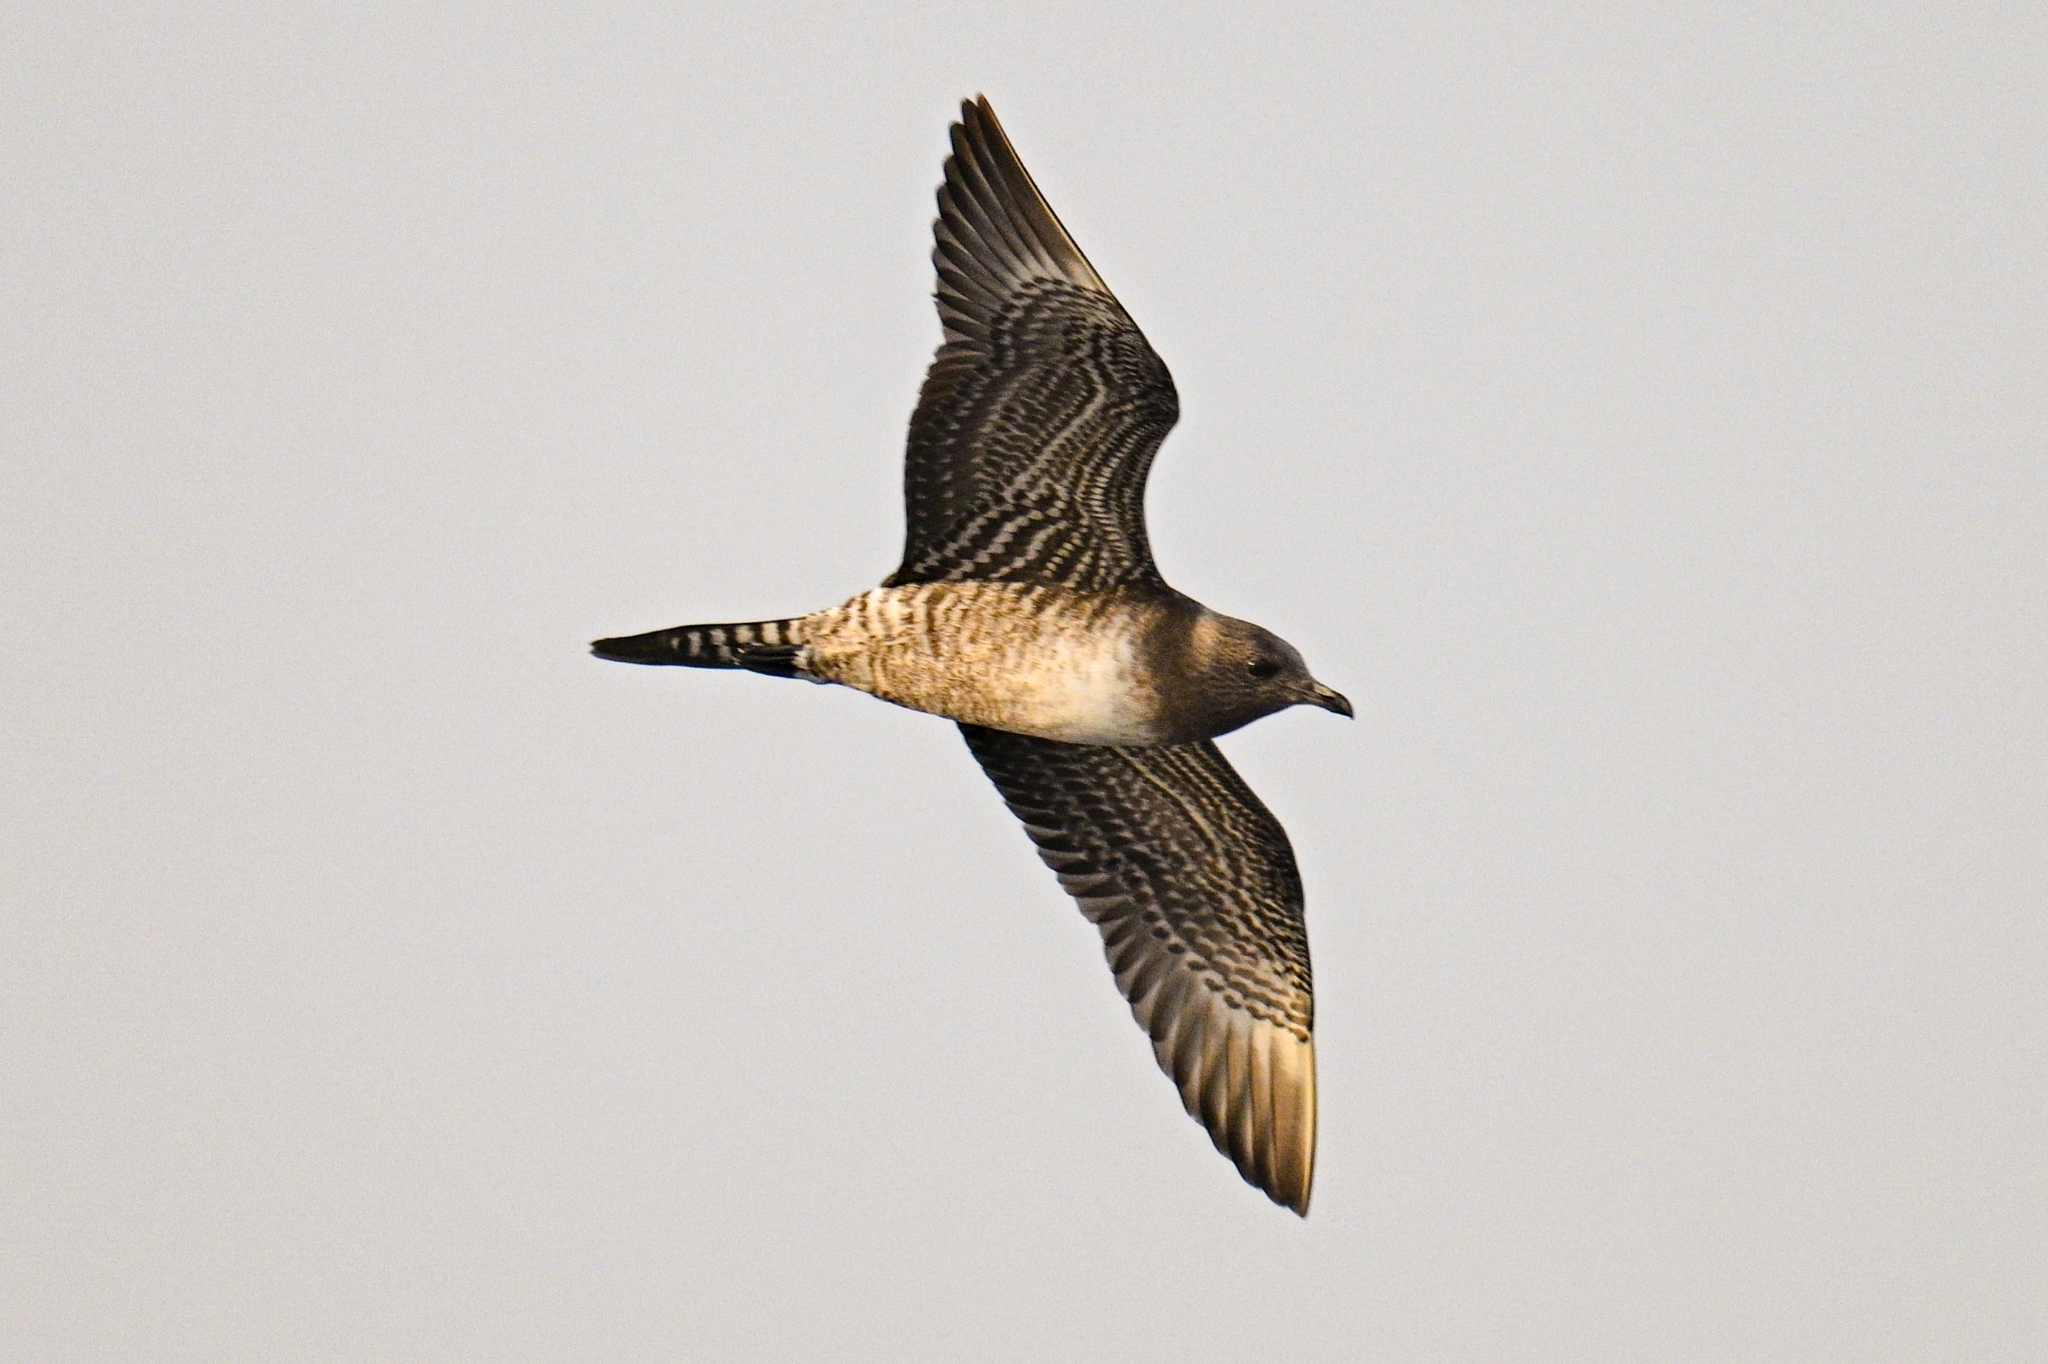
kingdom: Animalia
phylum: Chordata
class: Aves
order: Charadriiformes
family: Stercorariidae
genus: Stercorarius
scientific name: Stercorarius longicaudus
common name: Long-tailed jaeger
